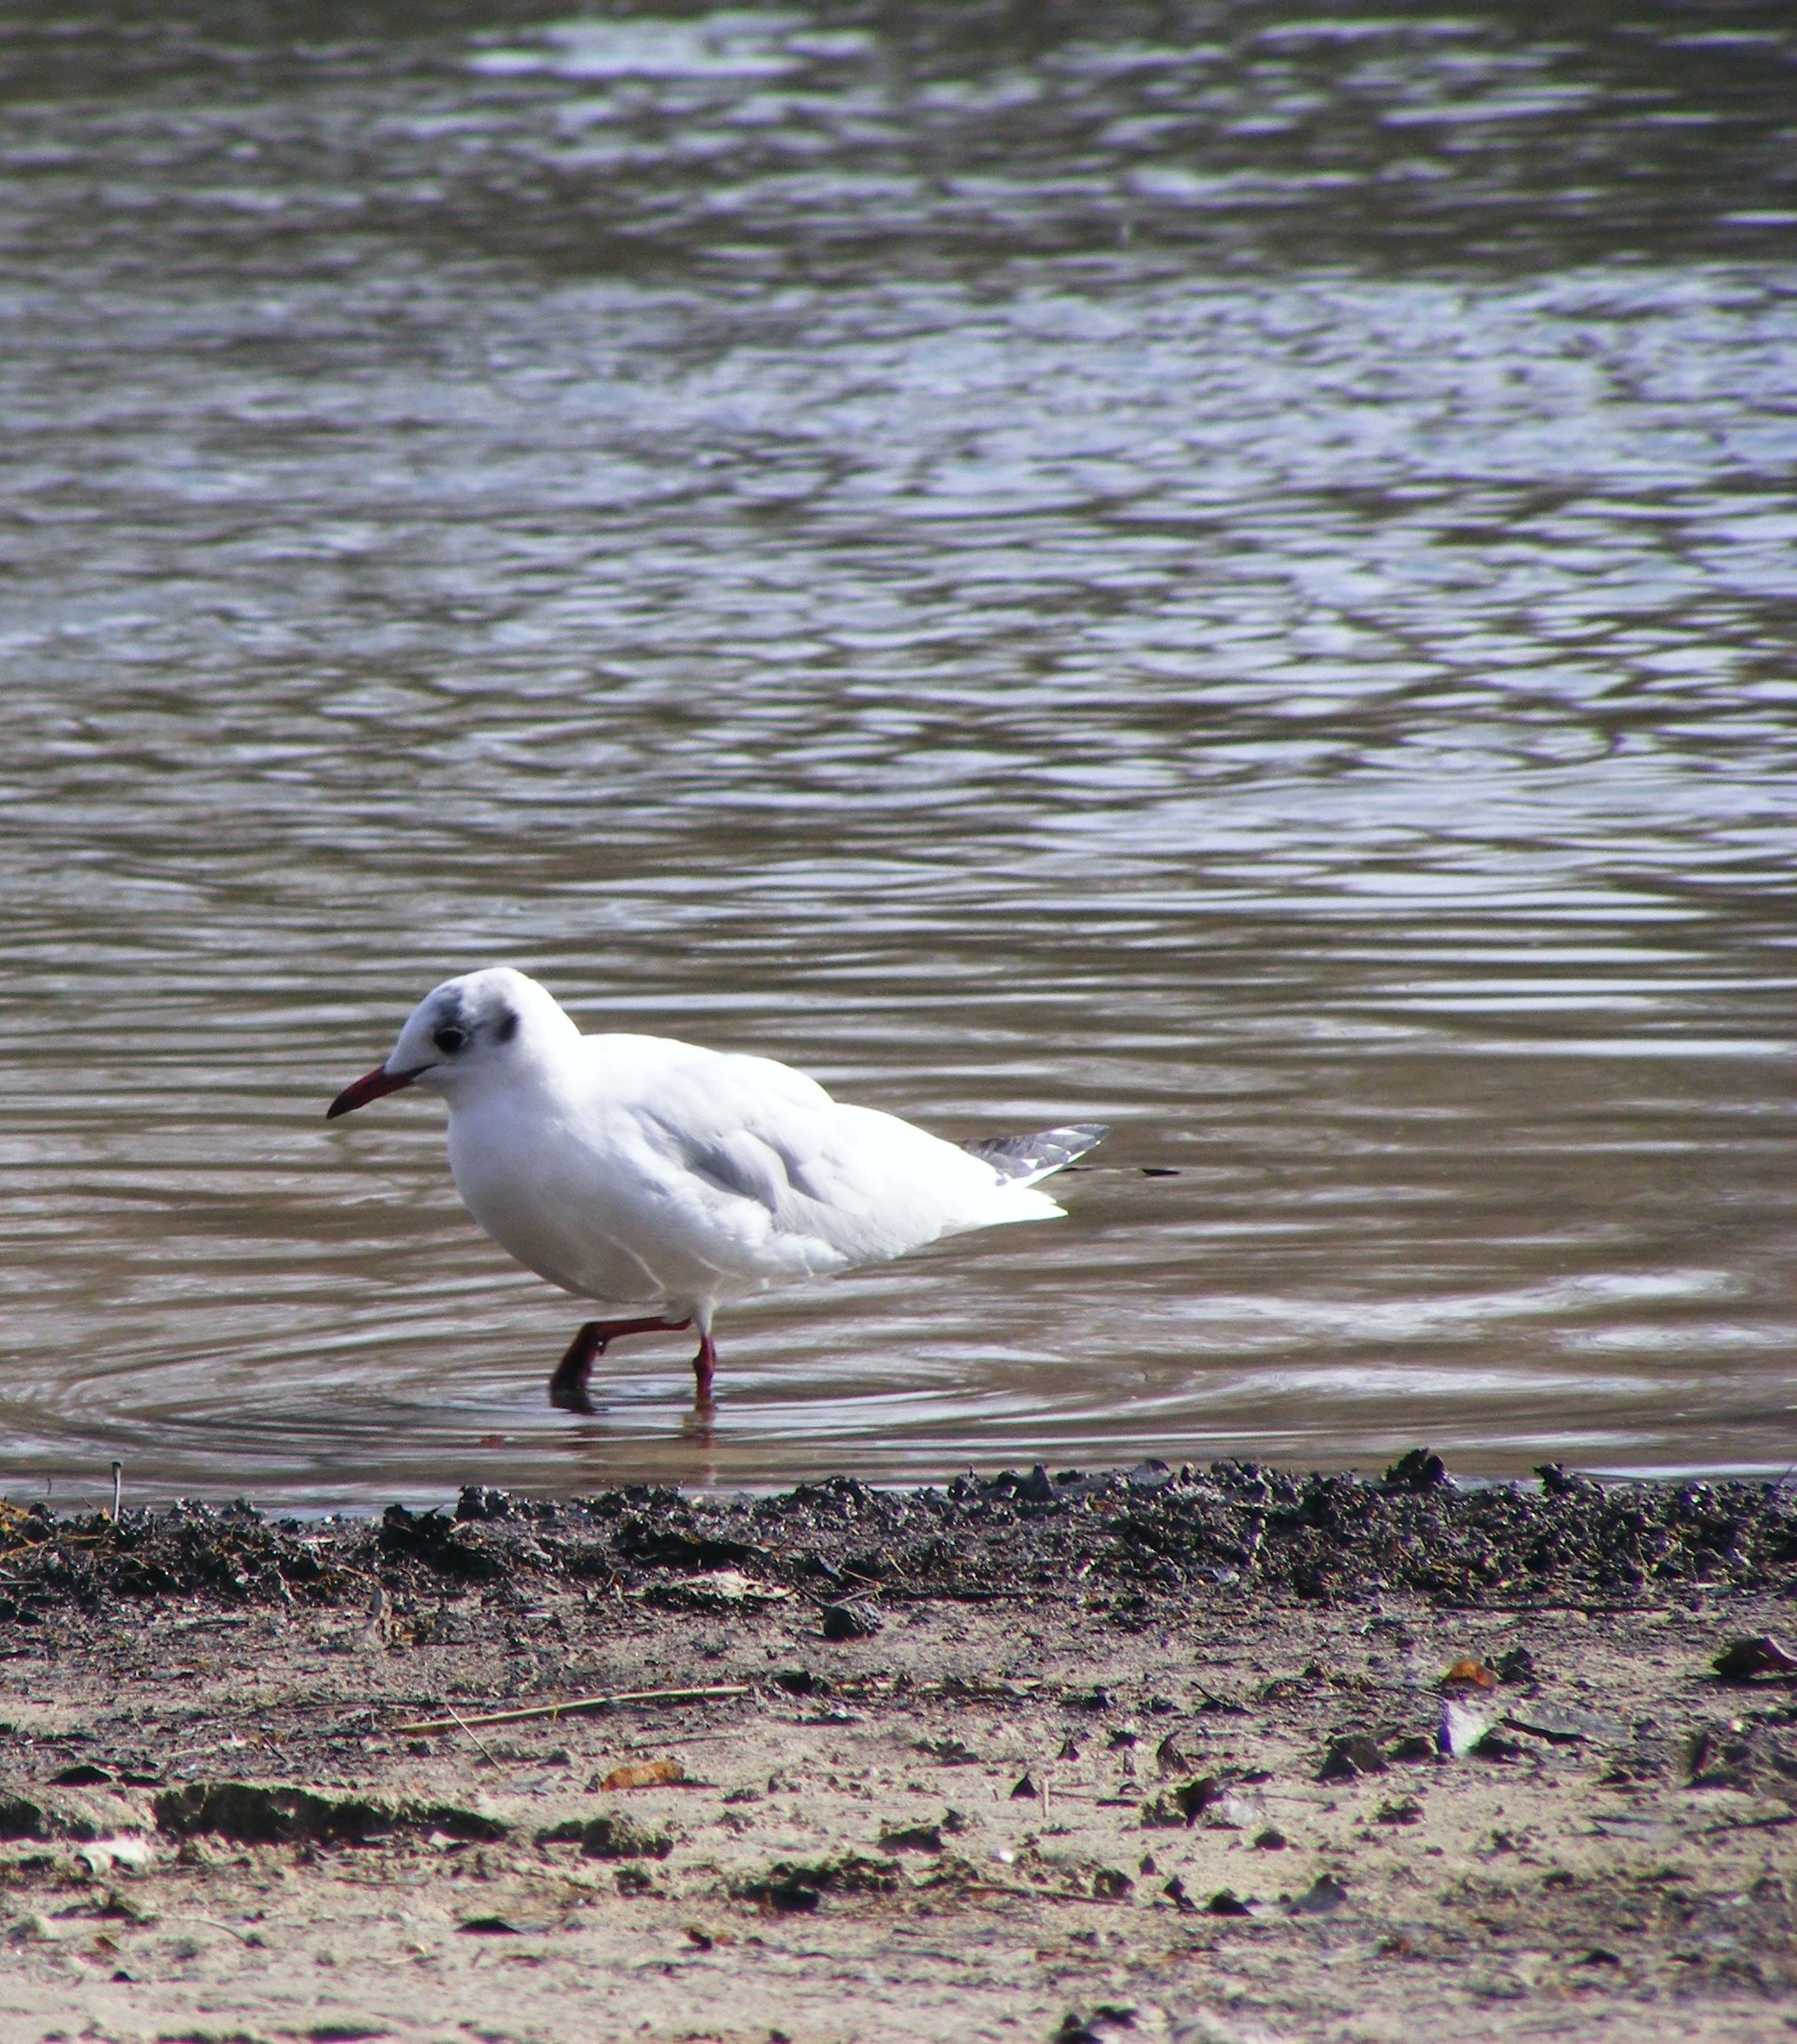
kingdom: Animalia
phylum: Chordata
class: Aves
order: Charadriiformes
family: Laridae
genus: Chroicocephalus
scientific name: Chroicocephalus ridibundus
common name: Black-headed gull
